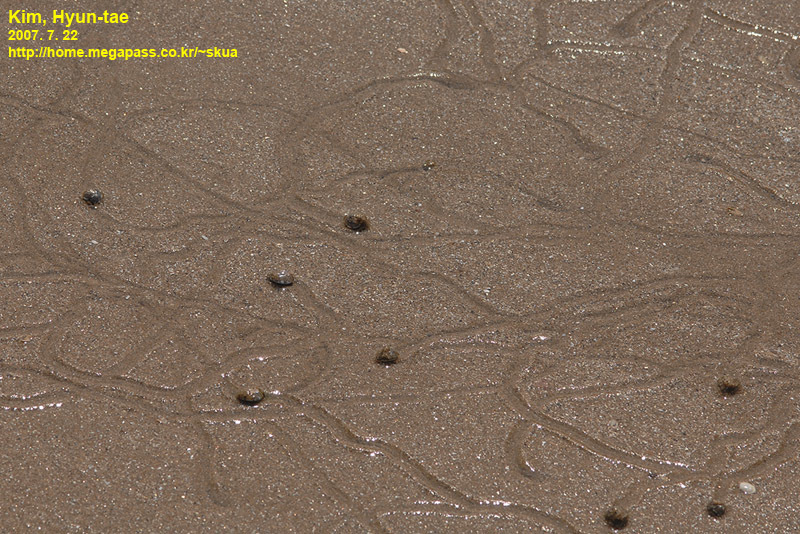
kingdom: Animalia
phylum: Mollusca
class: Gastropoda
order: Trochida
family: Trochidae
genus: Umbonium
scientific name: Umbonium thomasi
